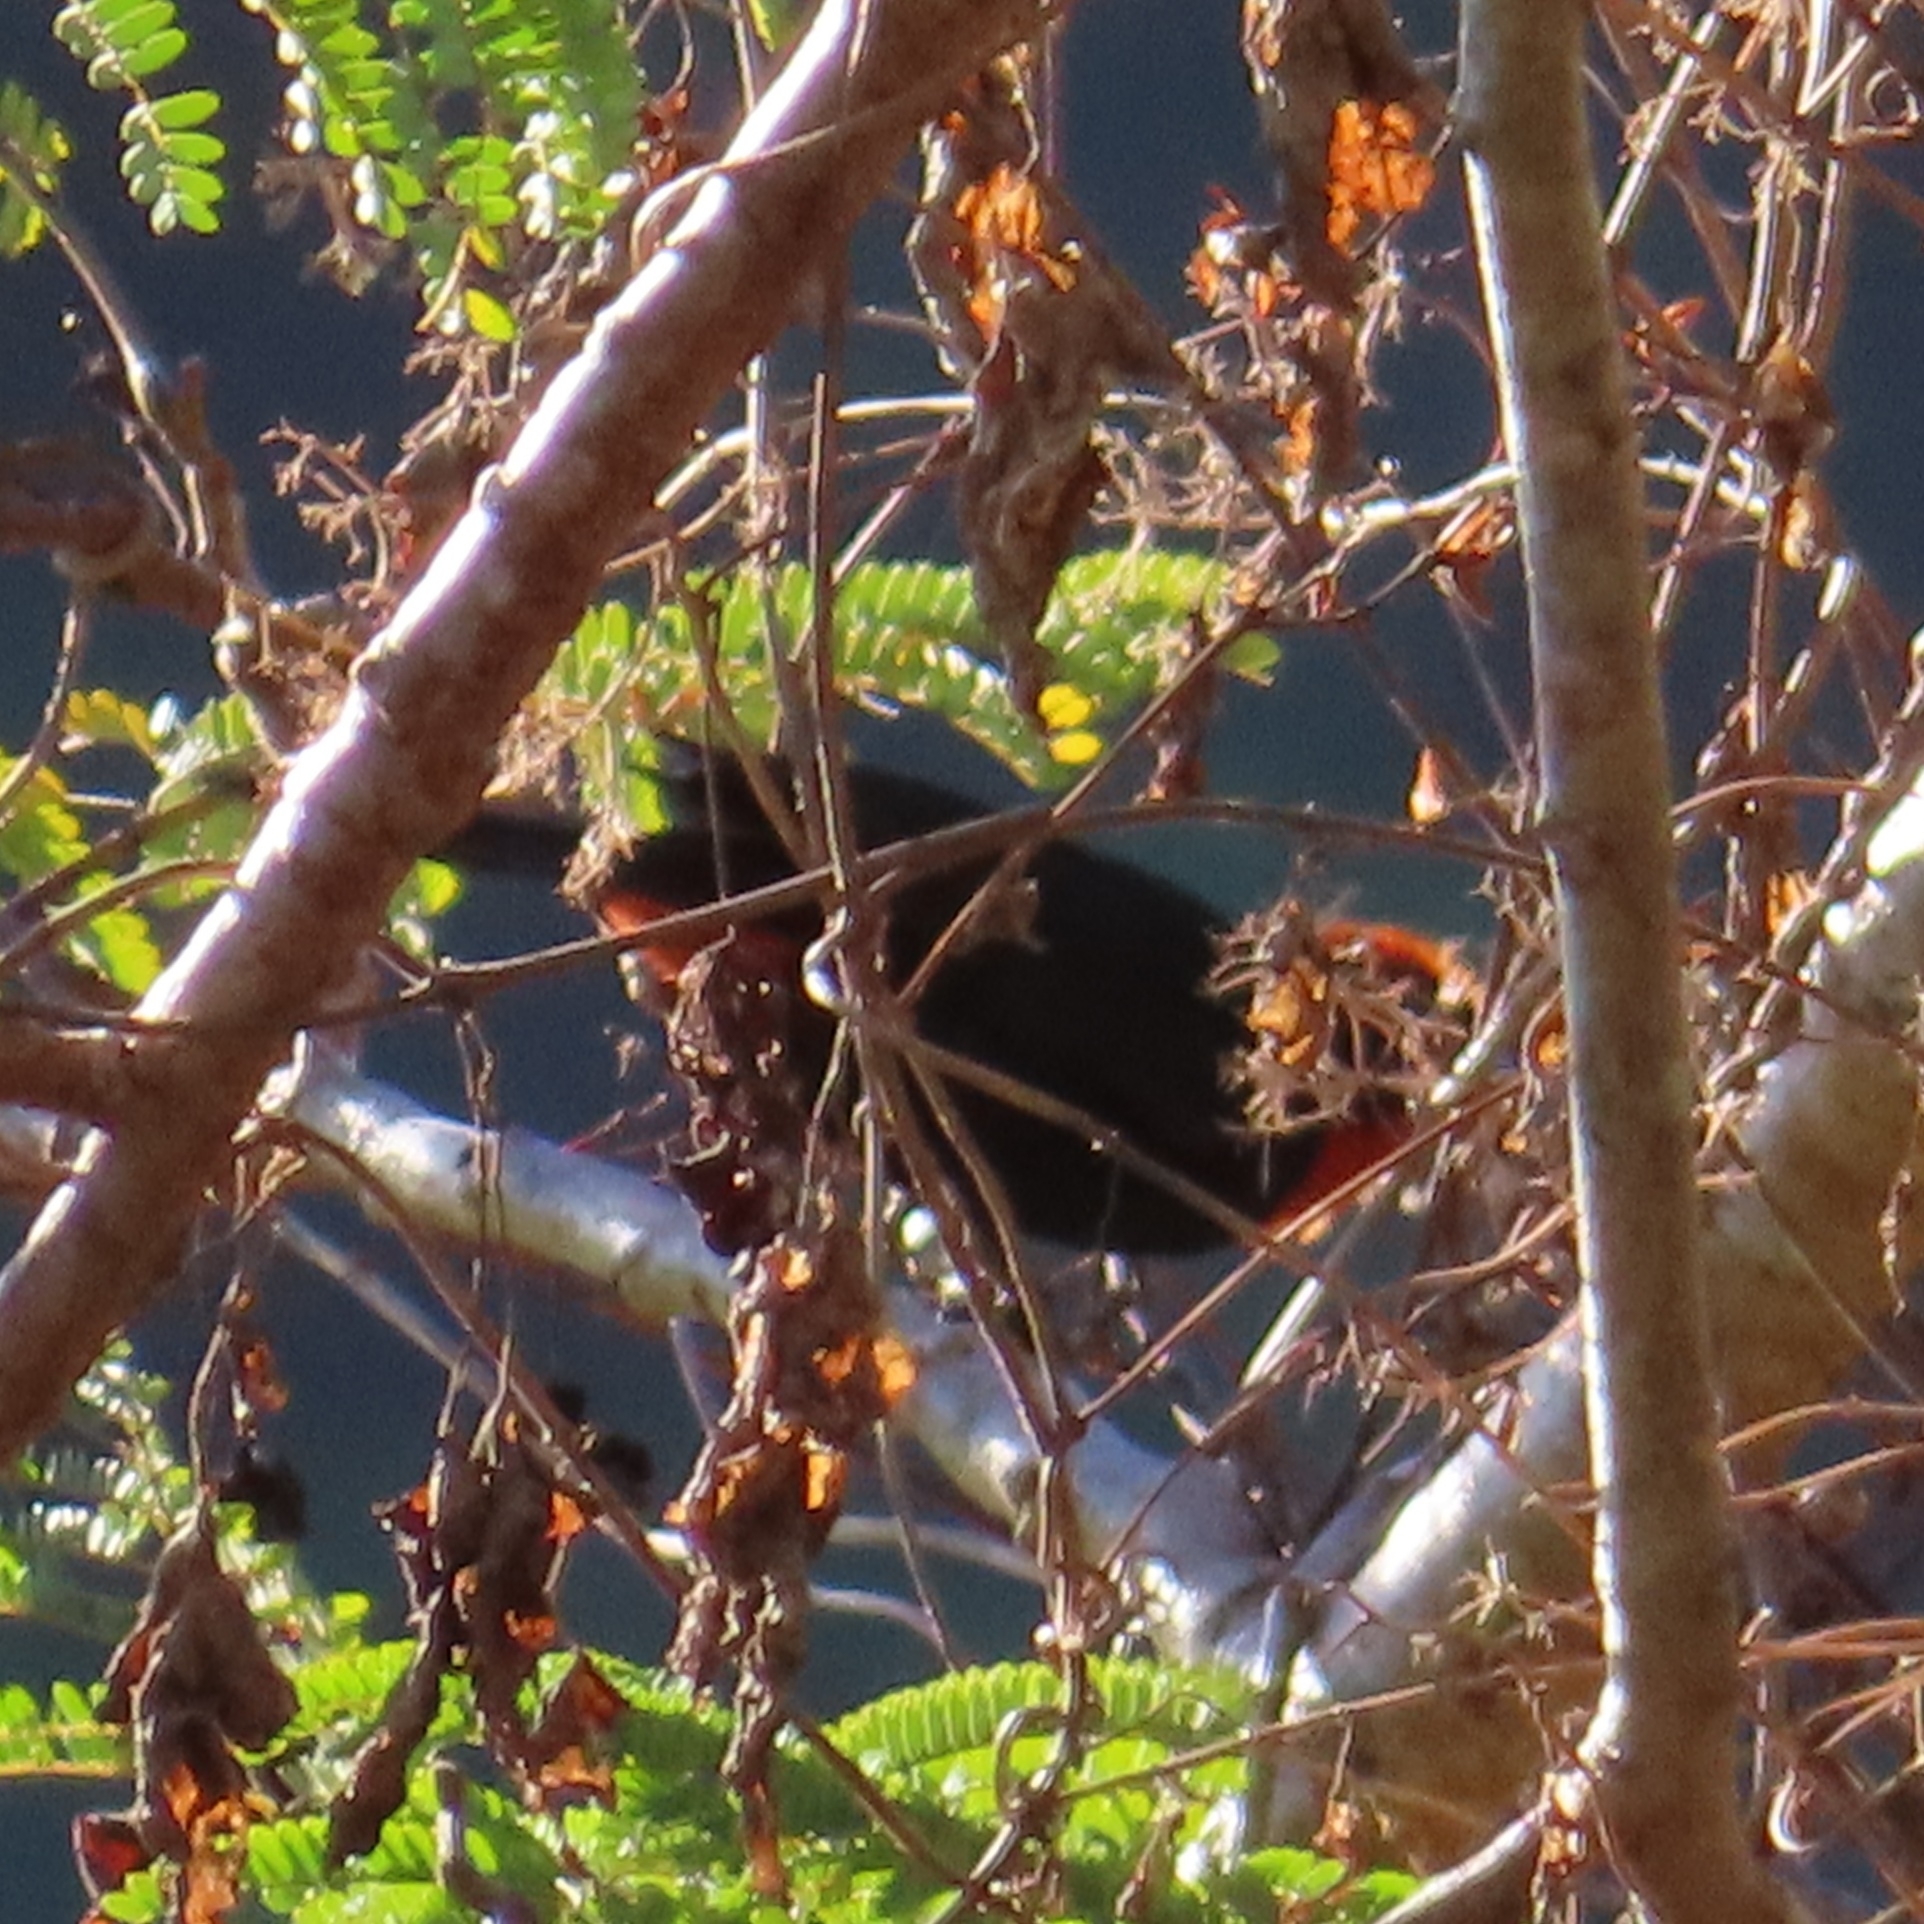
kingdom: Animalia
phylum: Chordata
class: Aves
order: Passeriformes
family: Thraupidae
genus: Melopyrrha
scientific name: Melopyrrha portoricensis
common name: Puerto rican bullfinch
